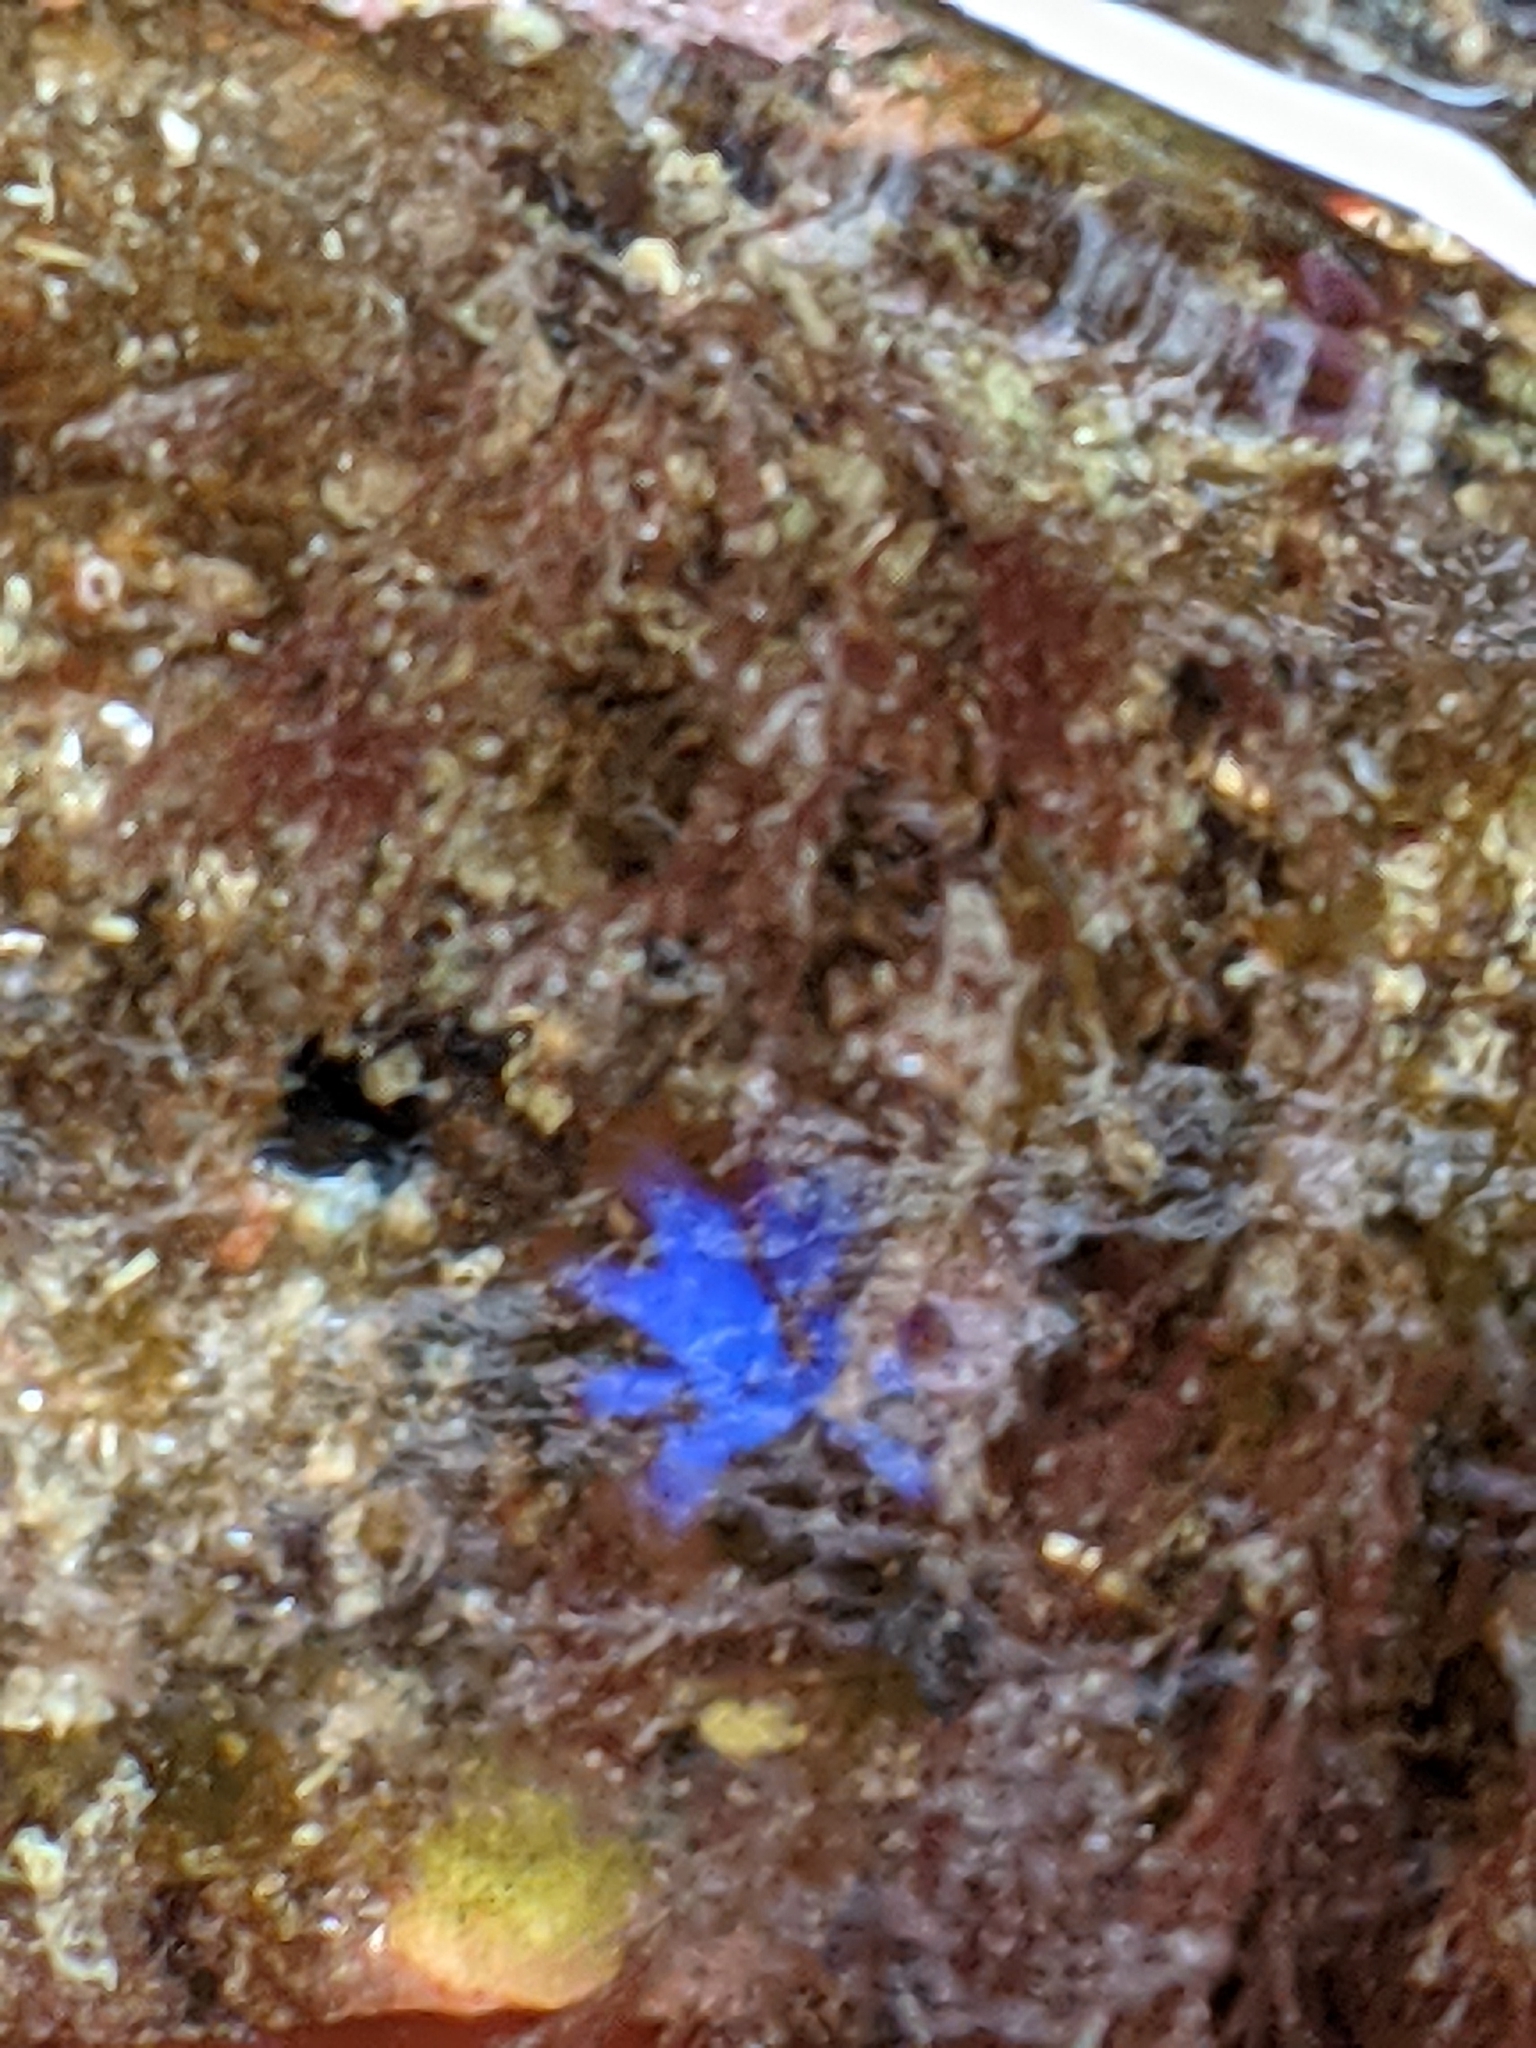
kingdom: Plantae
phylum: Rhodophyta
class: Florideophyceae
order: Rhodymeniales
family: Faucheaceae
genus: Gloiocladia
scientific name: Gloiocladia laciniata
